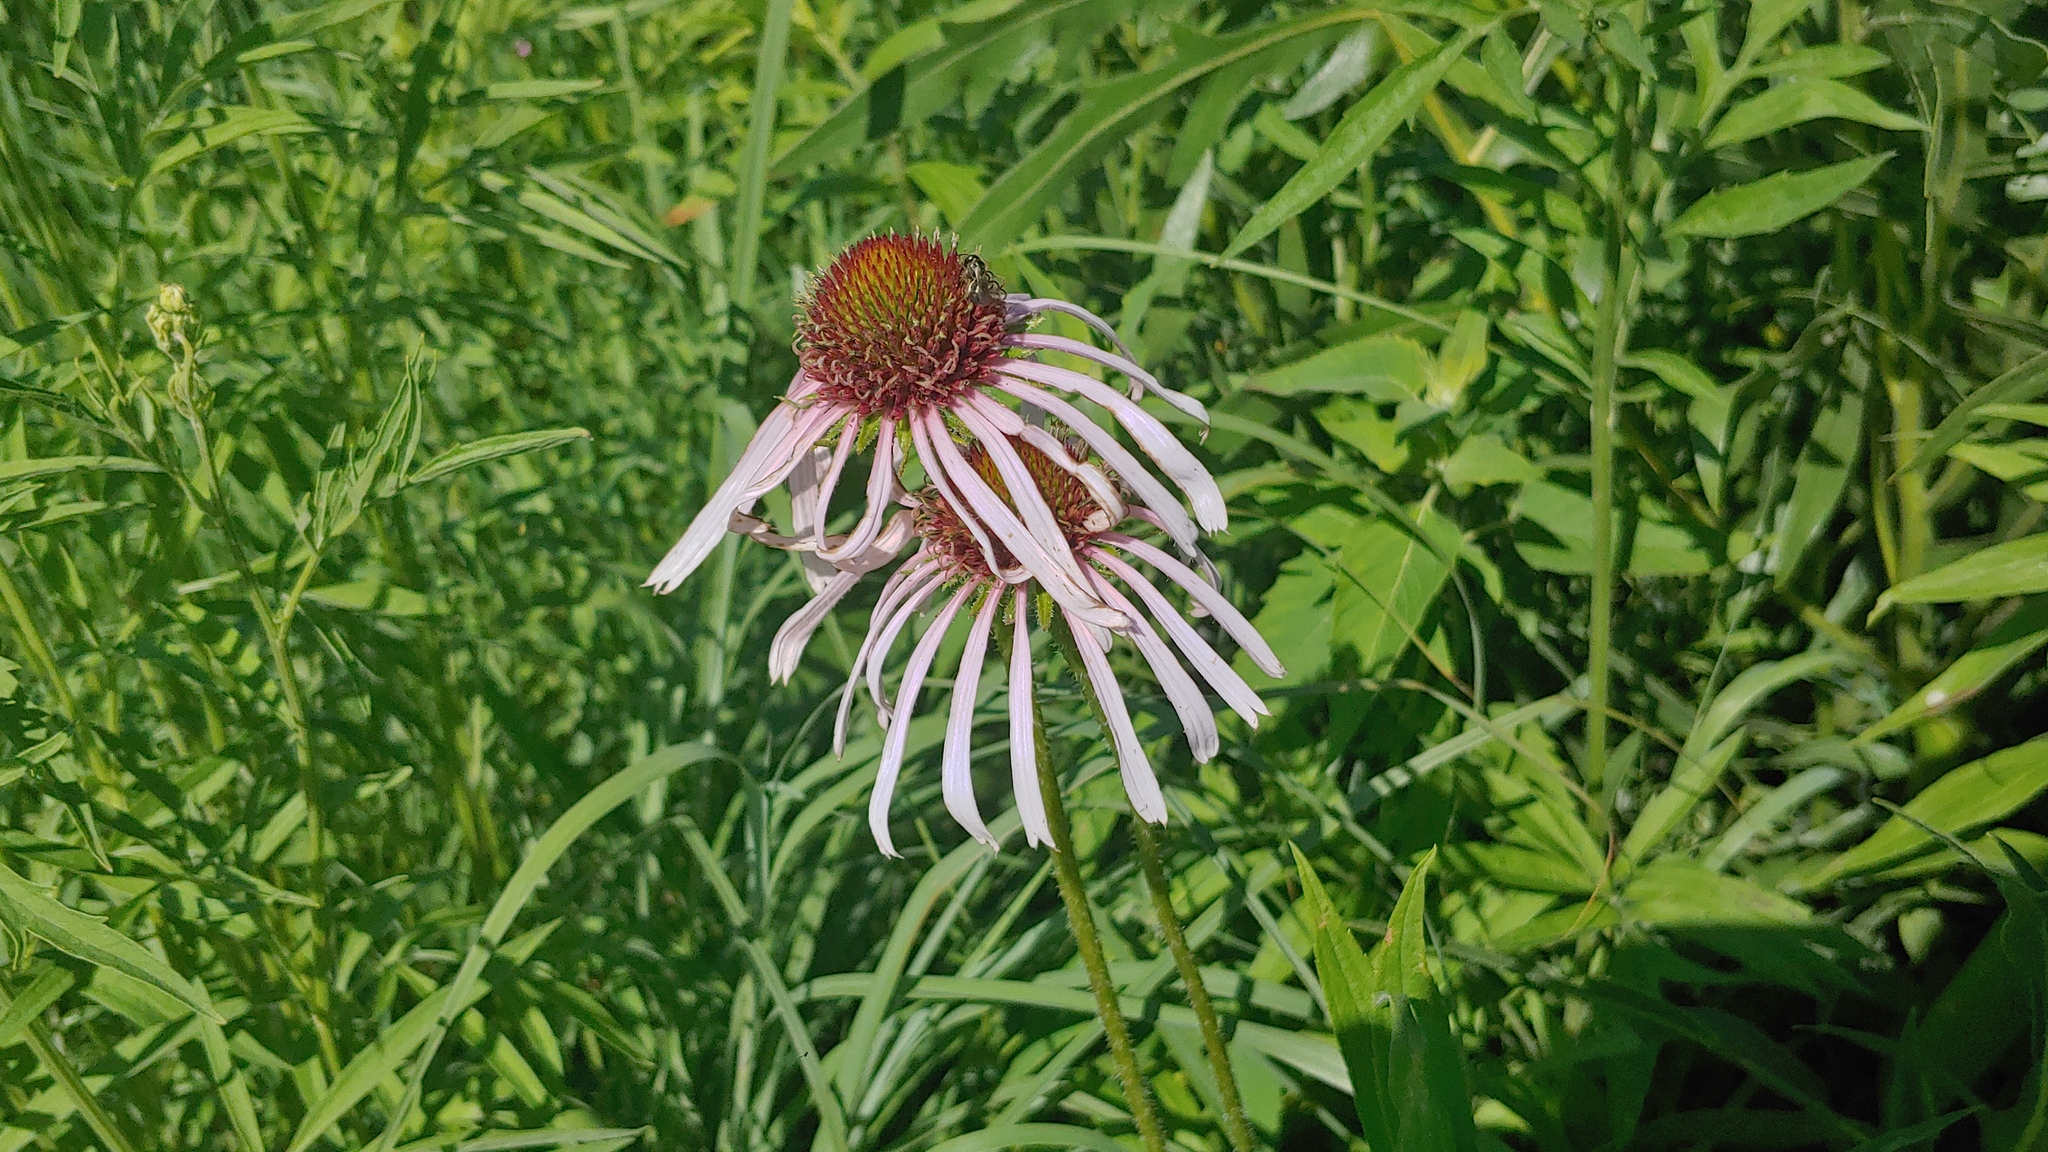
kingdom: Plantae
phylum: Tracheophyta
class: Magnoliopsida
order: Asterales
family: Asteraceae
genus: Echinacea
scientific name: Echinacea pallida
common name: Pale echinacea
